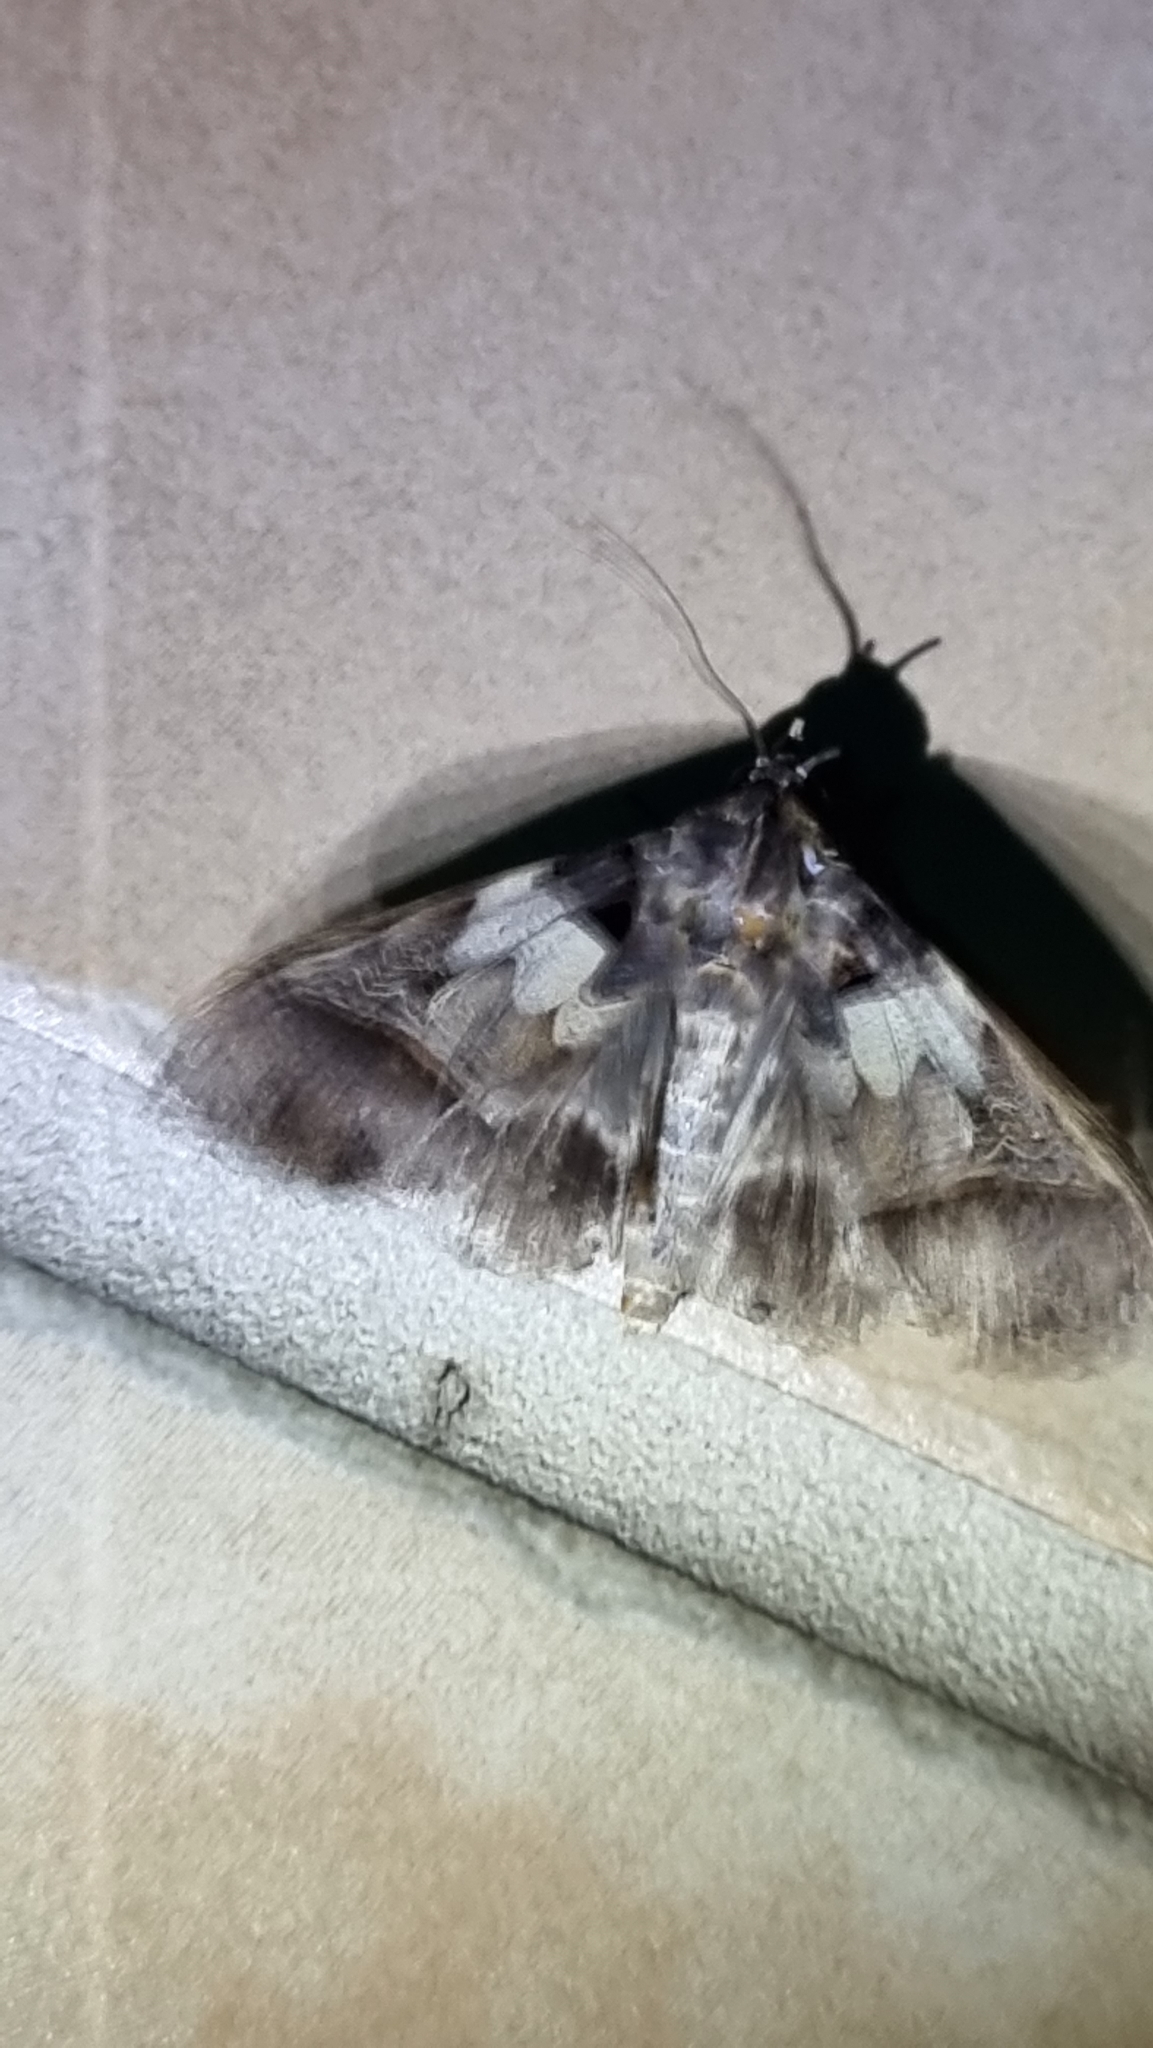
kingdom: Animalia
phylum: Arthropoda
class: Insecta
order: Lepidoptera
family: Erebidae
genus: Serrodes
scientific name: Serrodes campana
